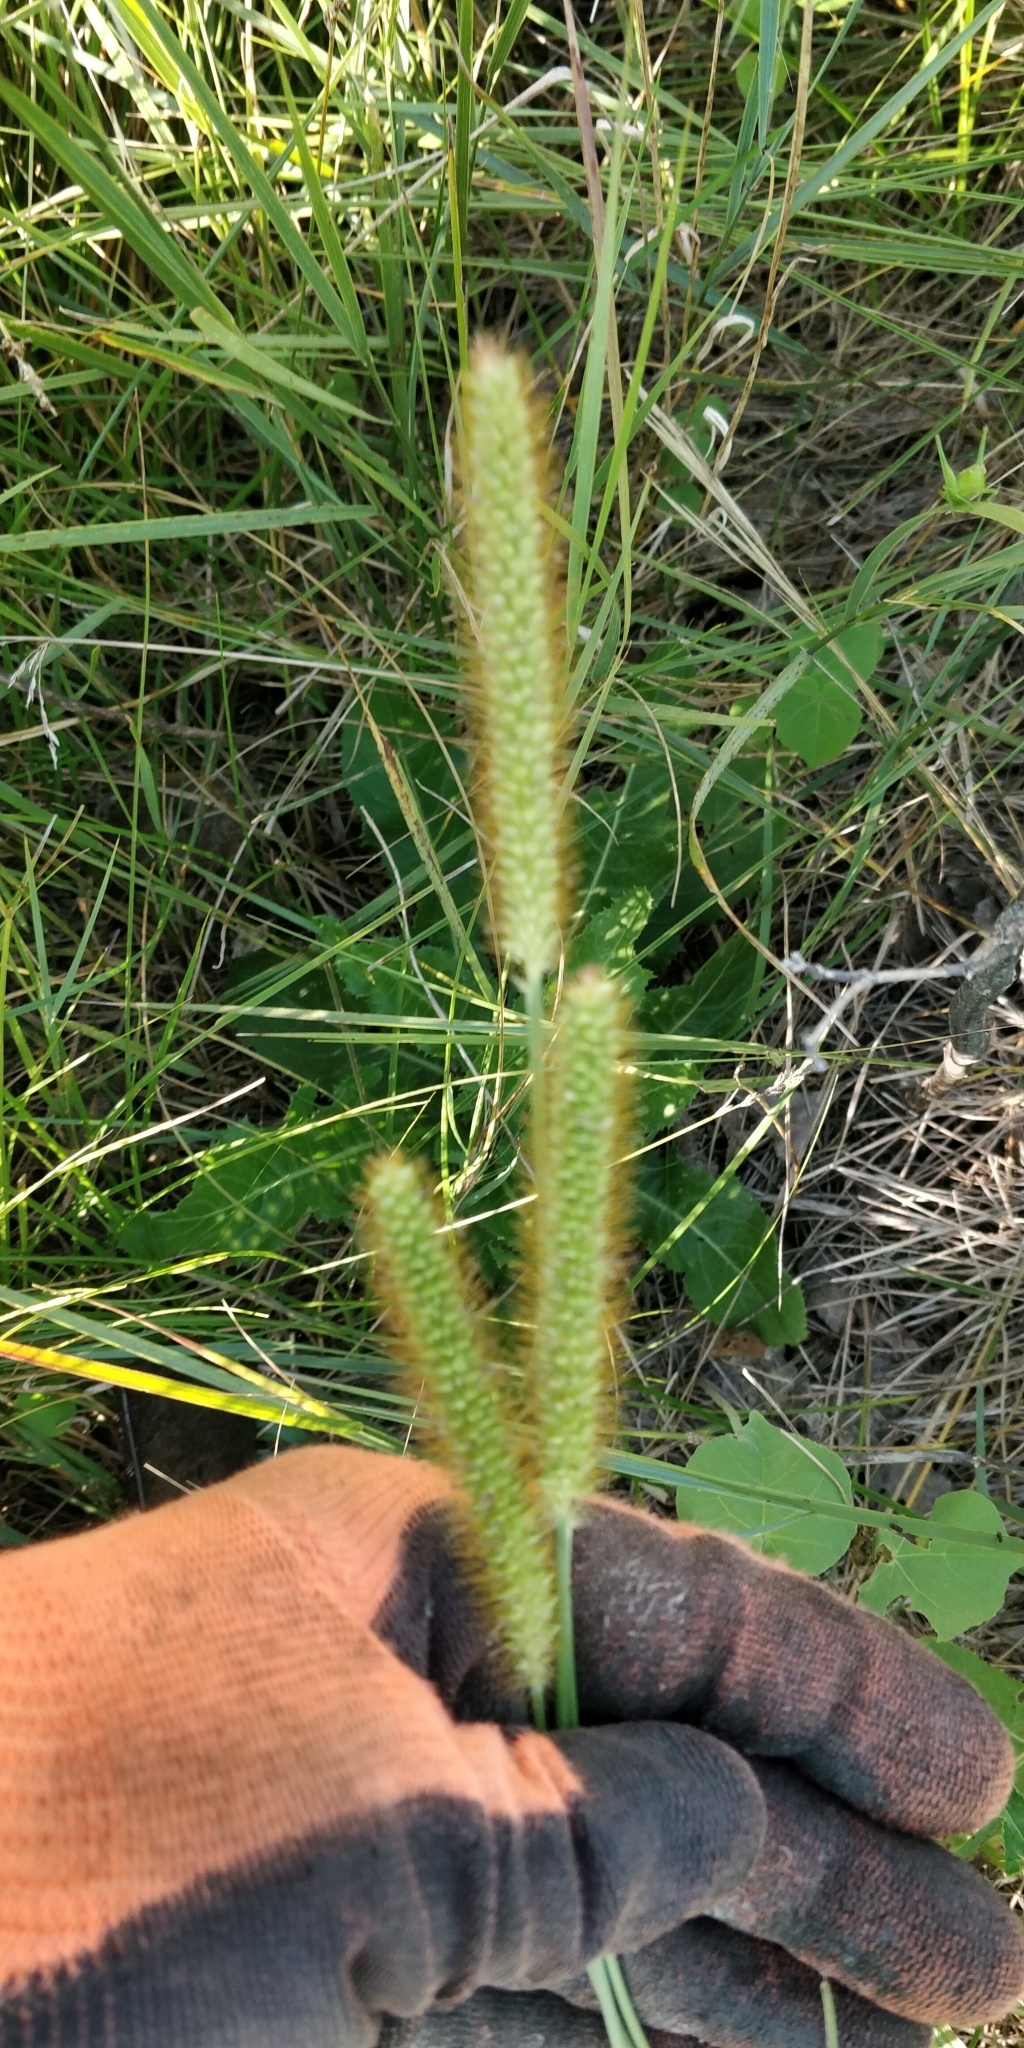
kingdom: Plantae
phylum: Tracheophyta
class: Liliopsida
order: Poales
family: Poaceae
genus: Setaria
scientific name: Setaria pumila
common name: Yellow bristle-grass
